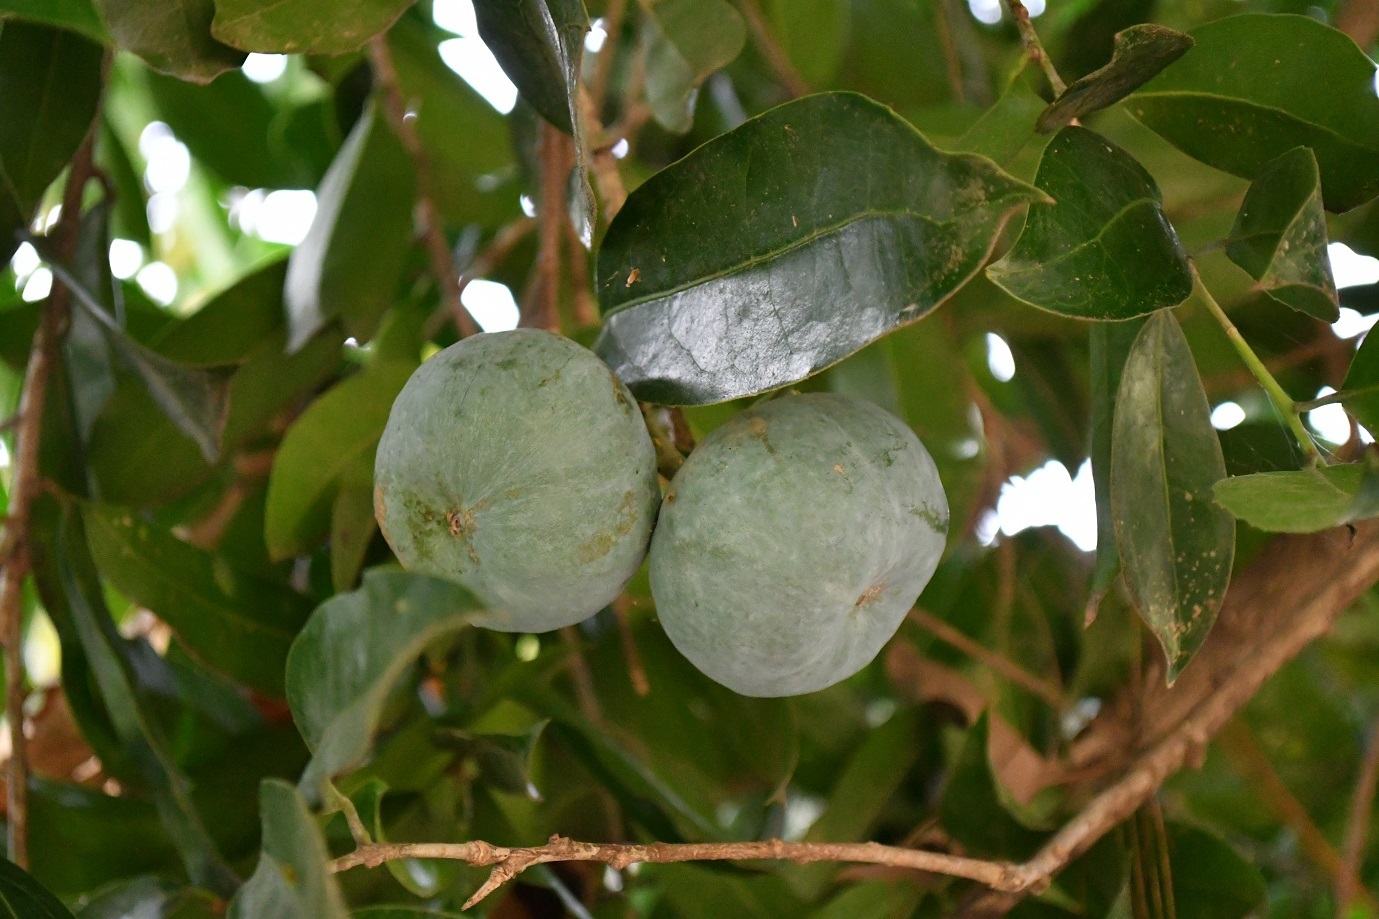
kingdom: Plantae
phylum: Tracheophyta
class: Magnoliopsida
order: Malpighiales
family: Salicaceae
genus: Olmediella
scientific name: Olmediella betschleriana
